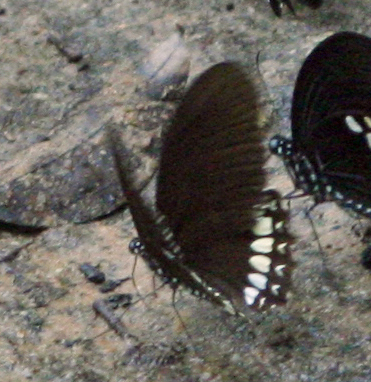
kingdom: Animalia
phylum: Arthropoda
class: Insecta
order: Lepidoptera
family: Papilionidae
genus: Papilio
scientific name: Papilio castor
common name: Common raven
